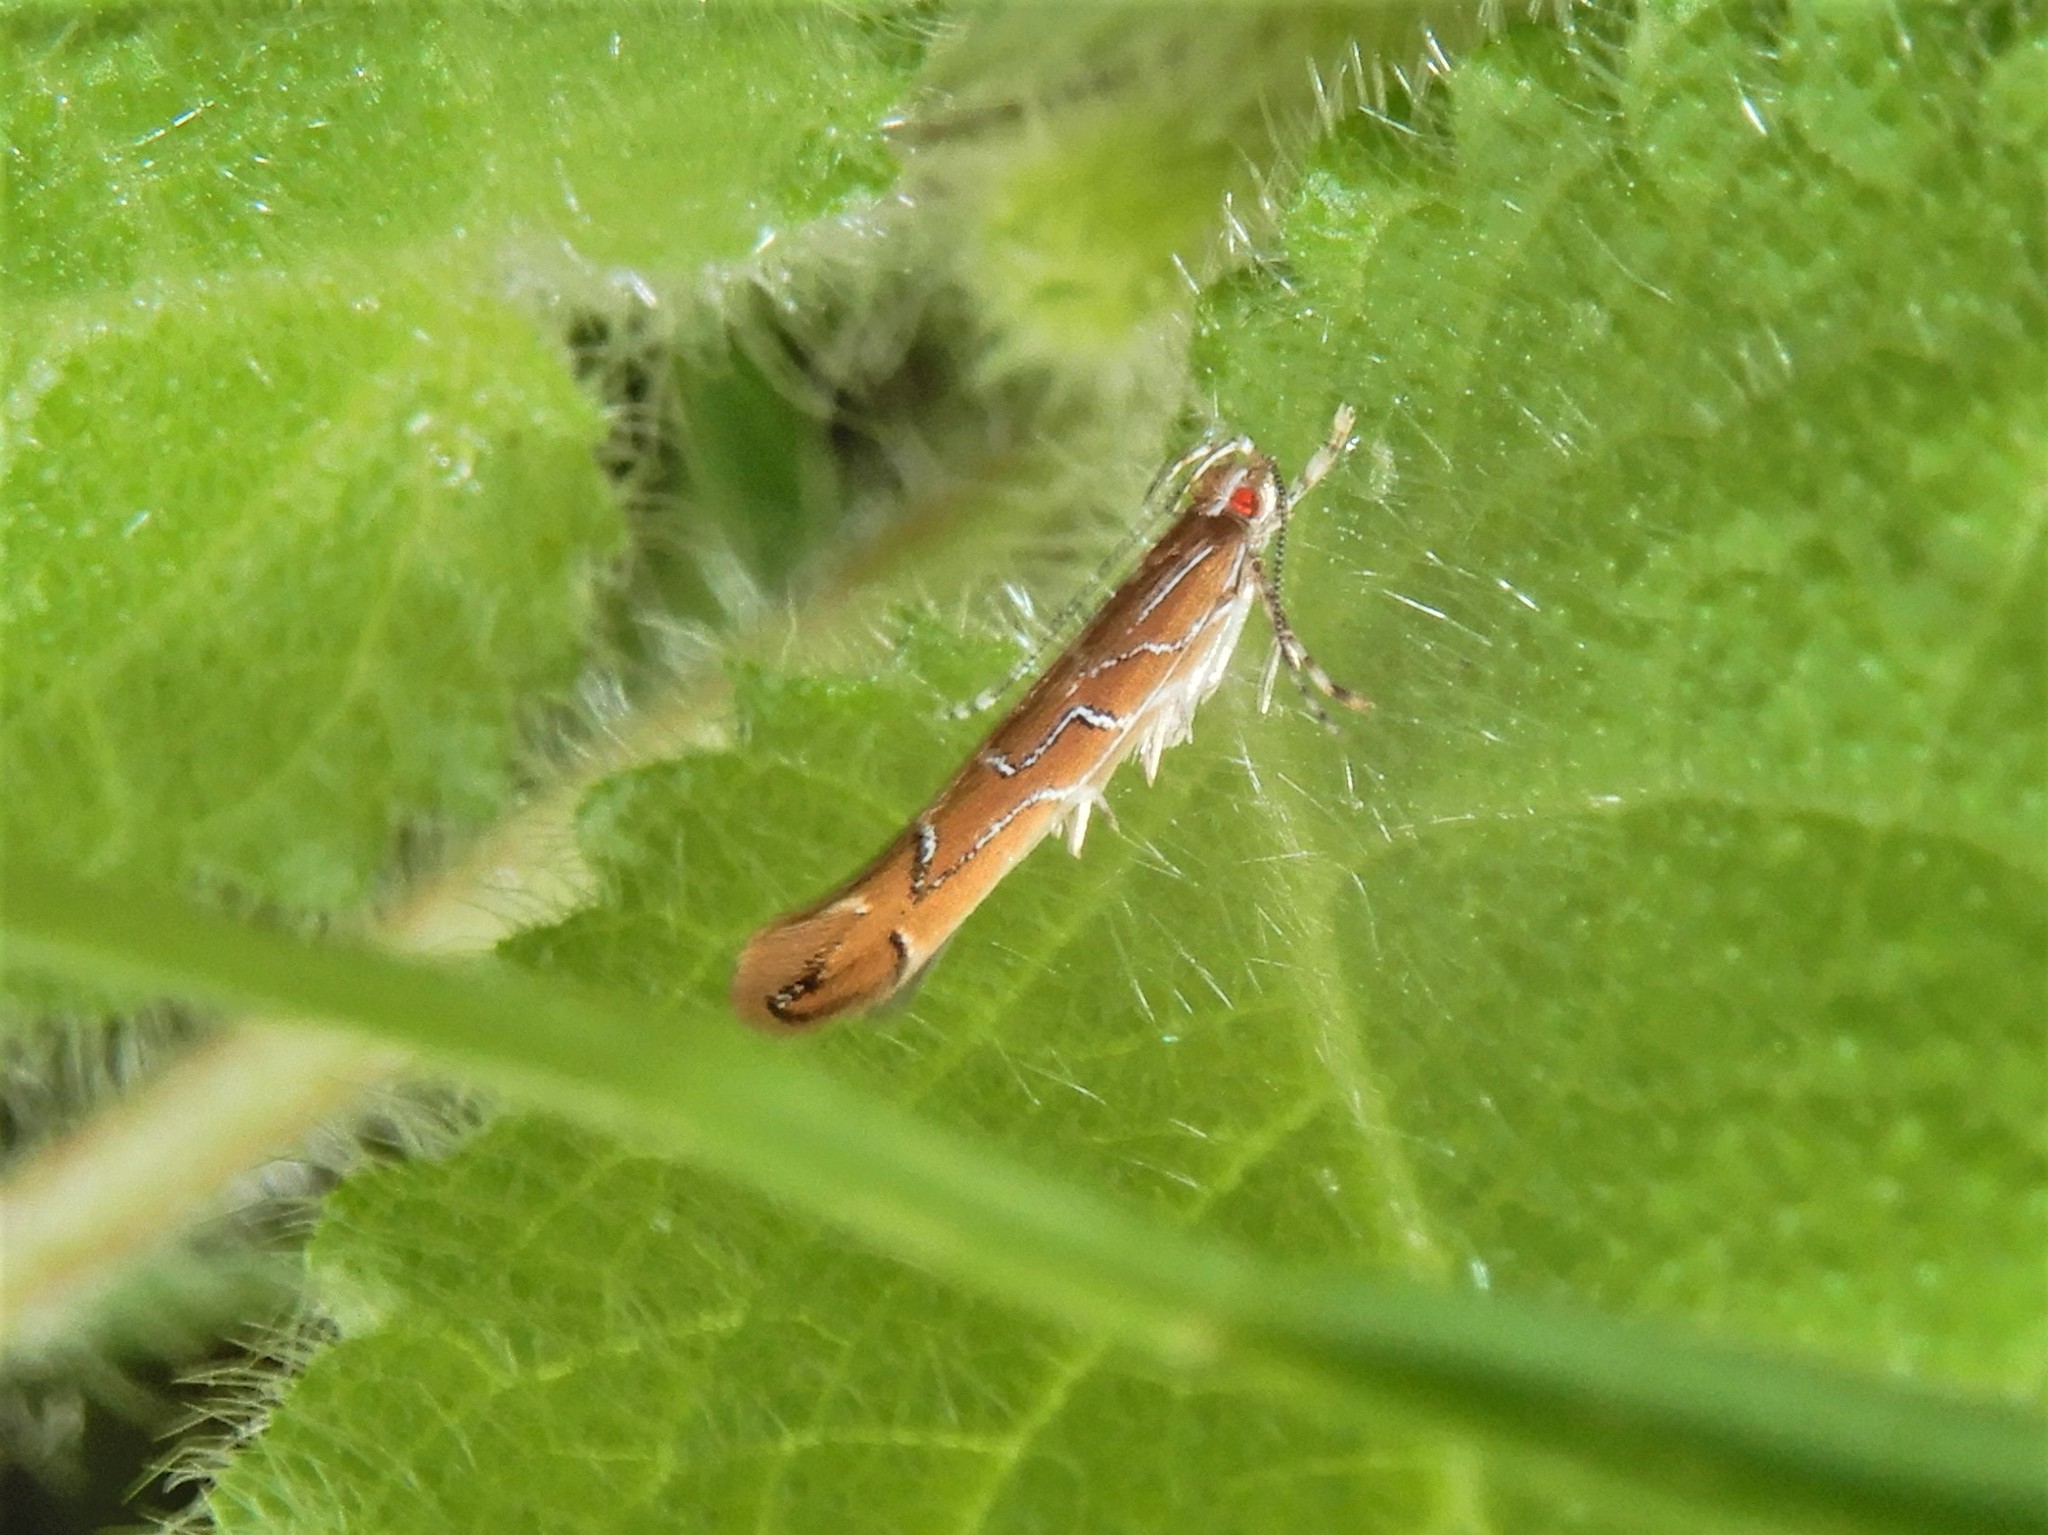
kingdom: Animalia
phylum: Arthropoda
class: Insecta
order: Lepidoptera
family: Cosmopterigidae
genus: Pyroderces
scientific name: Pyroderces apparitella
